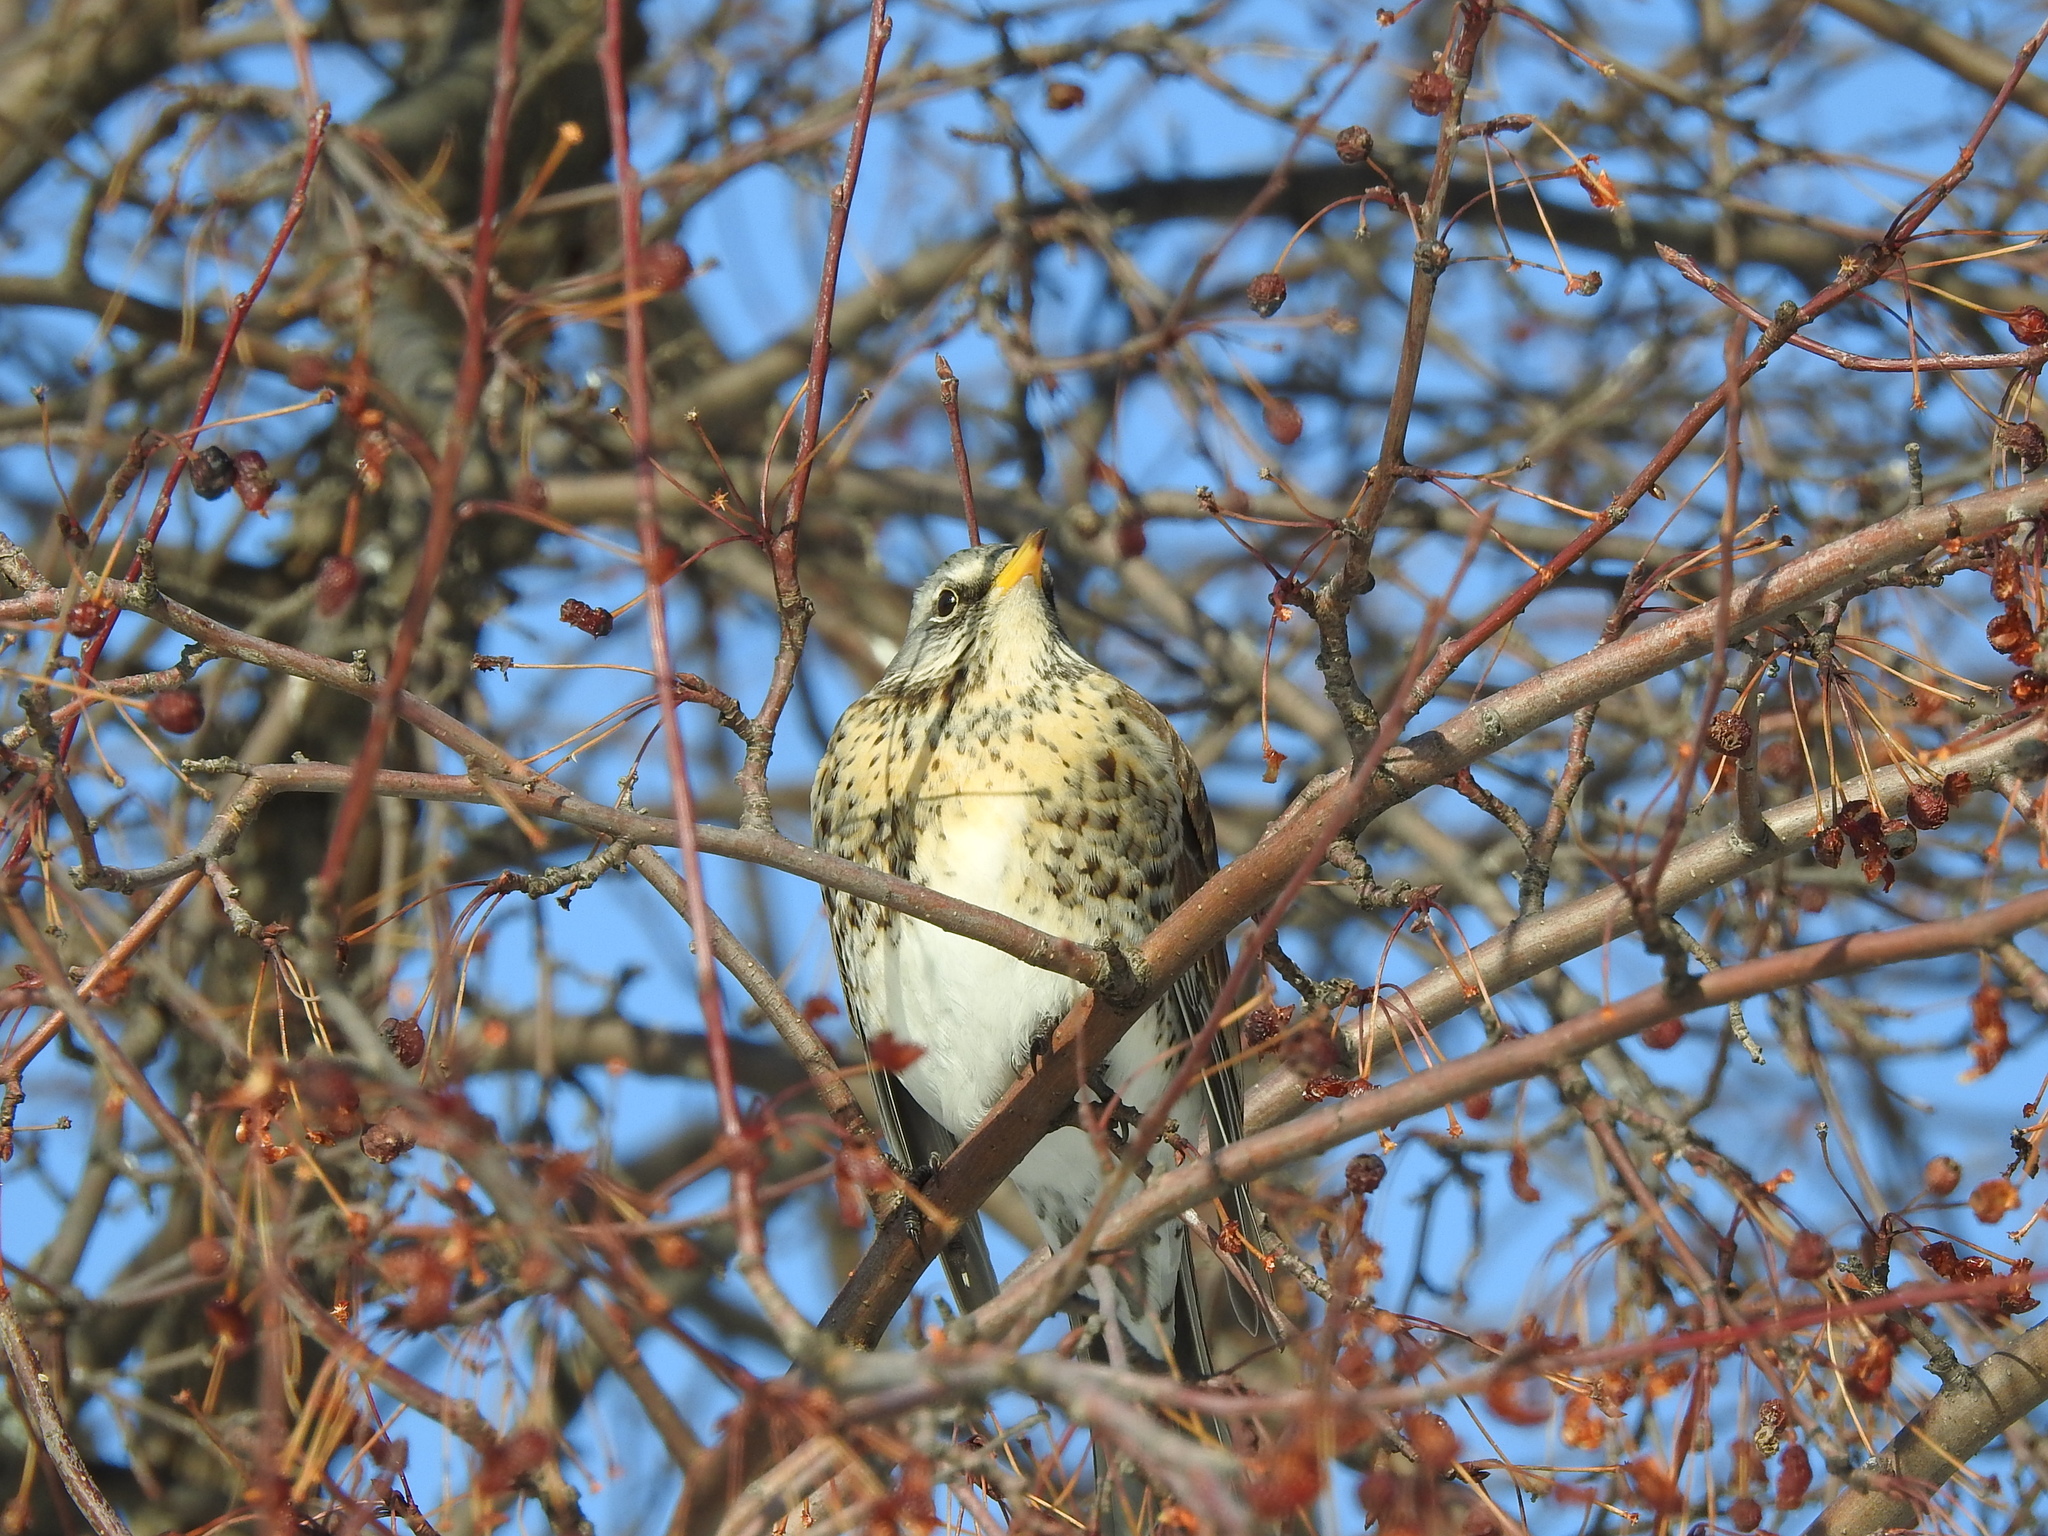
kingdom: Animalia
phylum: Chordata
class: Aves
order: Passeriformes
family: Turdidae
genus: Turdus
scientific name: Turdus pilaris
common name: Fieldfare
